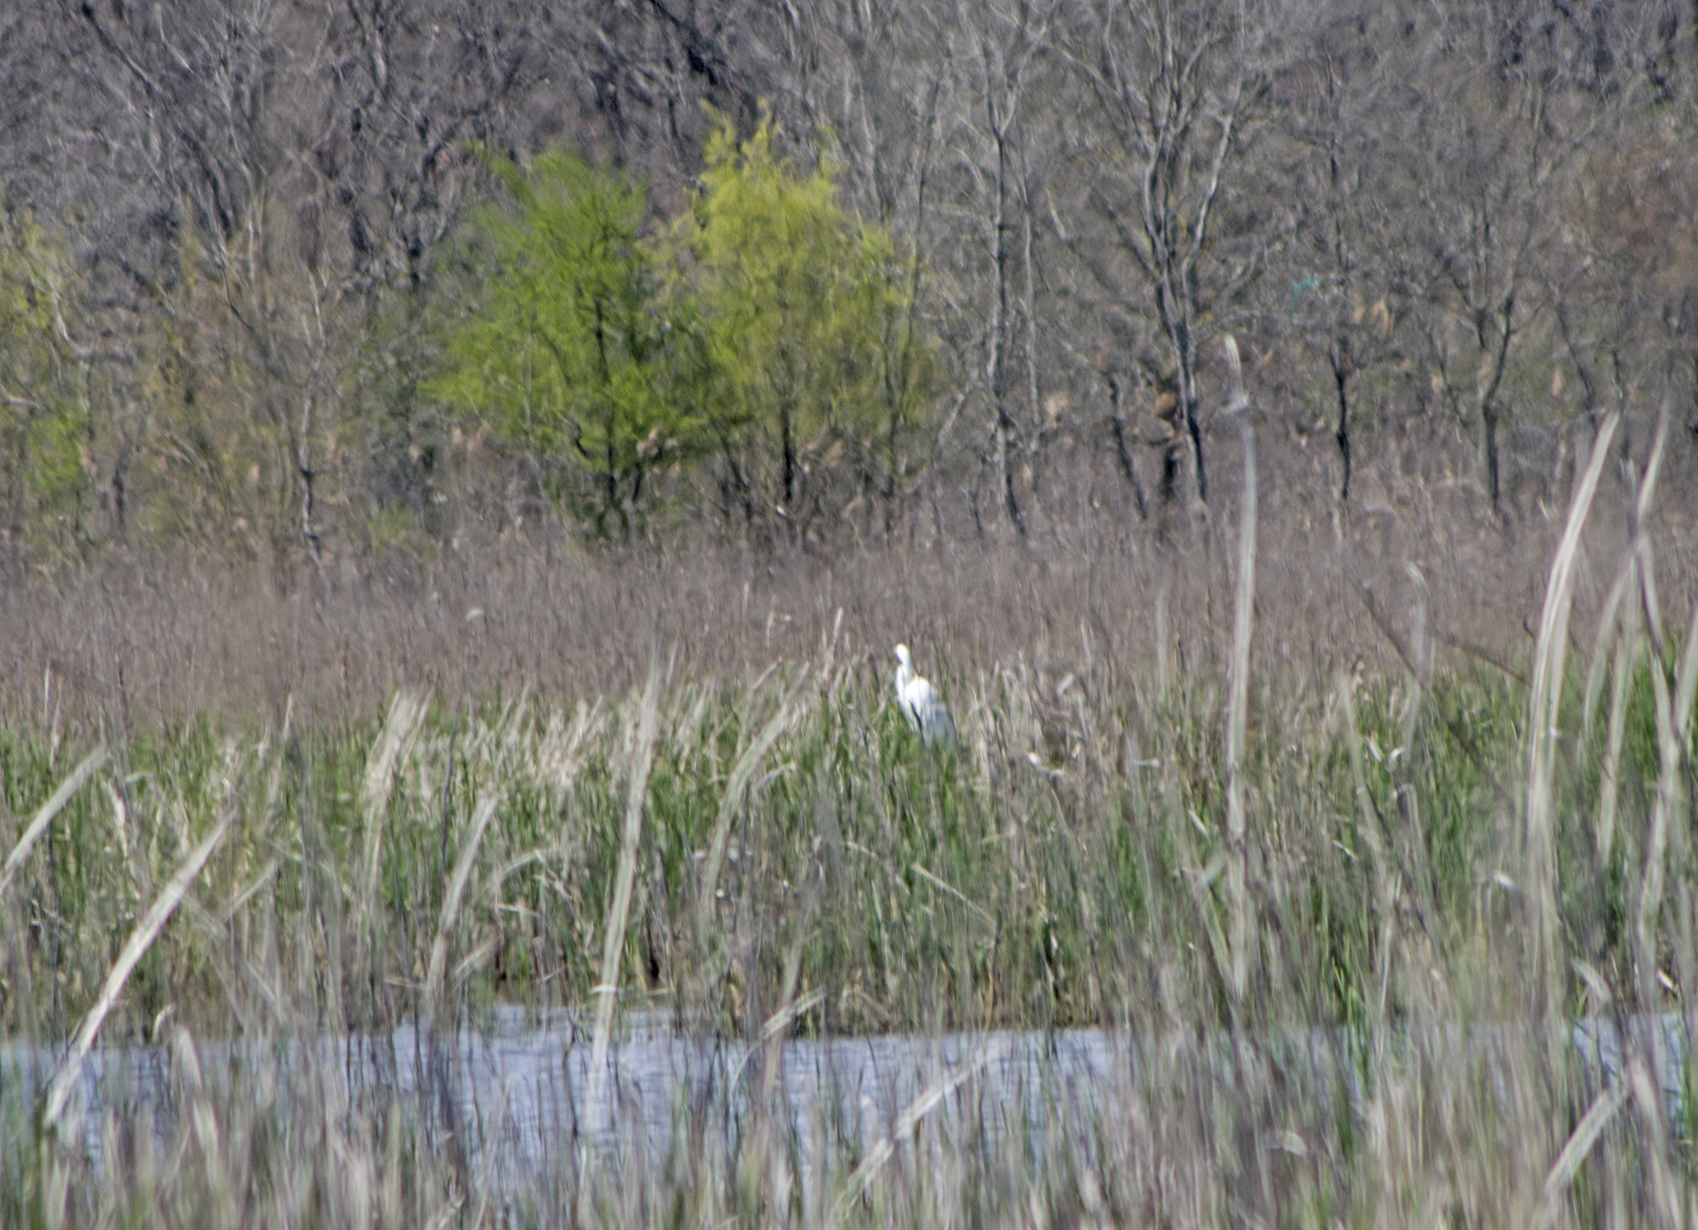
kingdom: Animalia
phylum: Chordata
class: Aves
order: Pelecaniformes
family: Ardeidae
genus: Ardea
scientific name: Ardea alba
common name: Great egret
